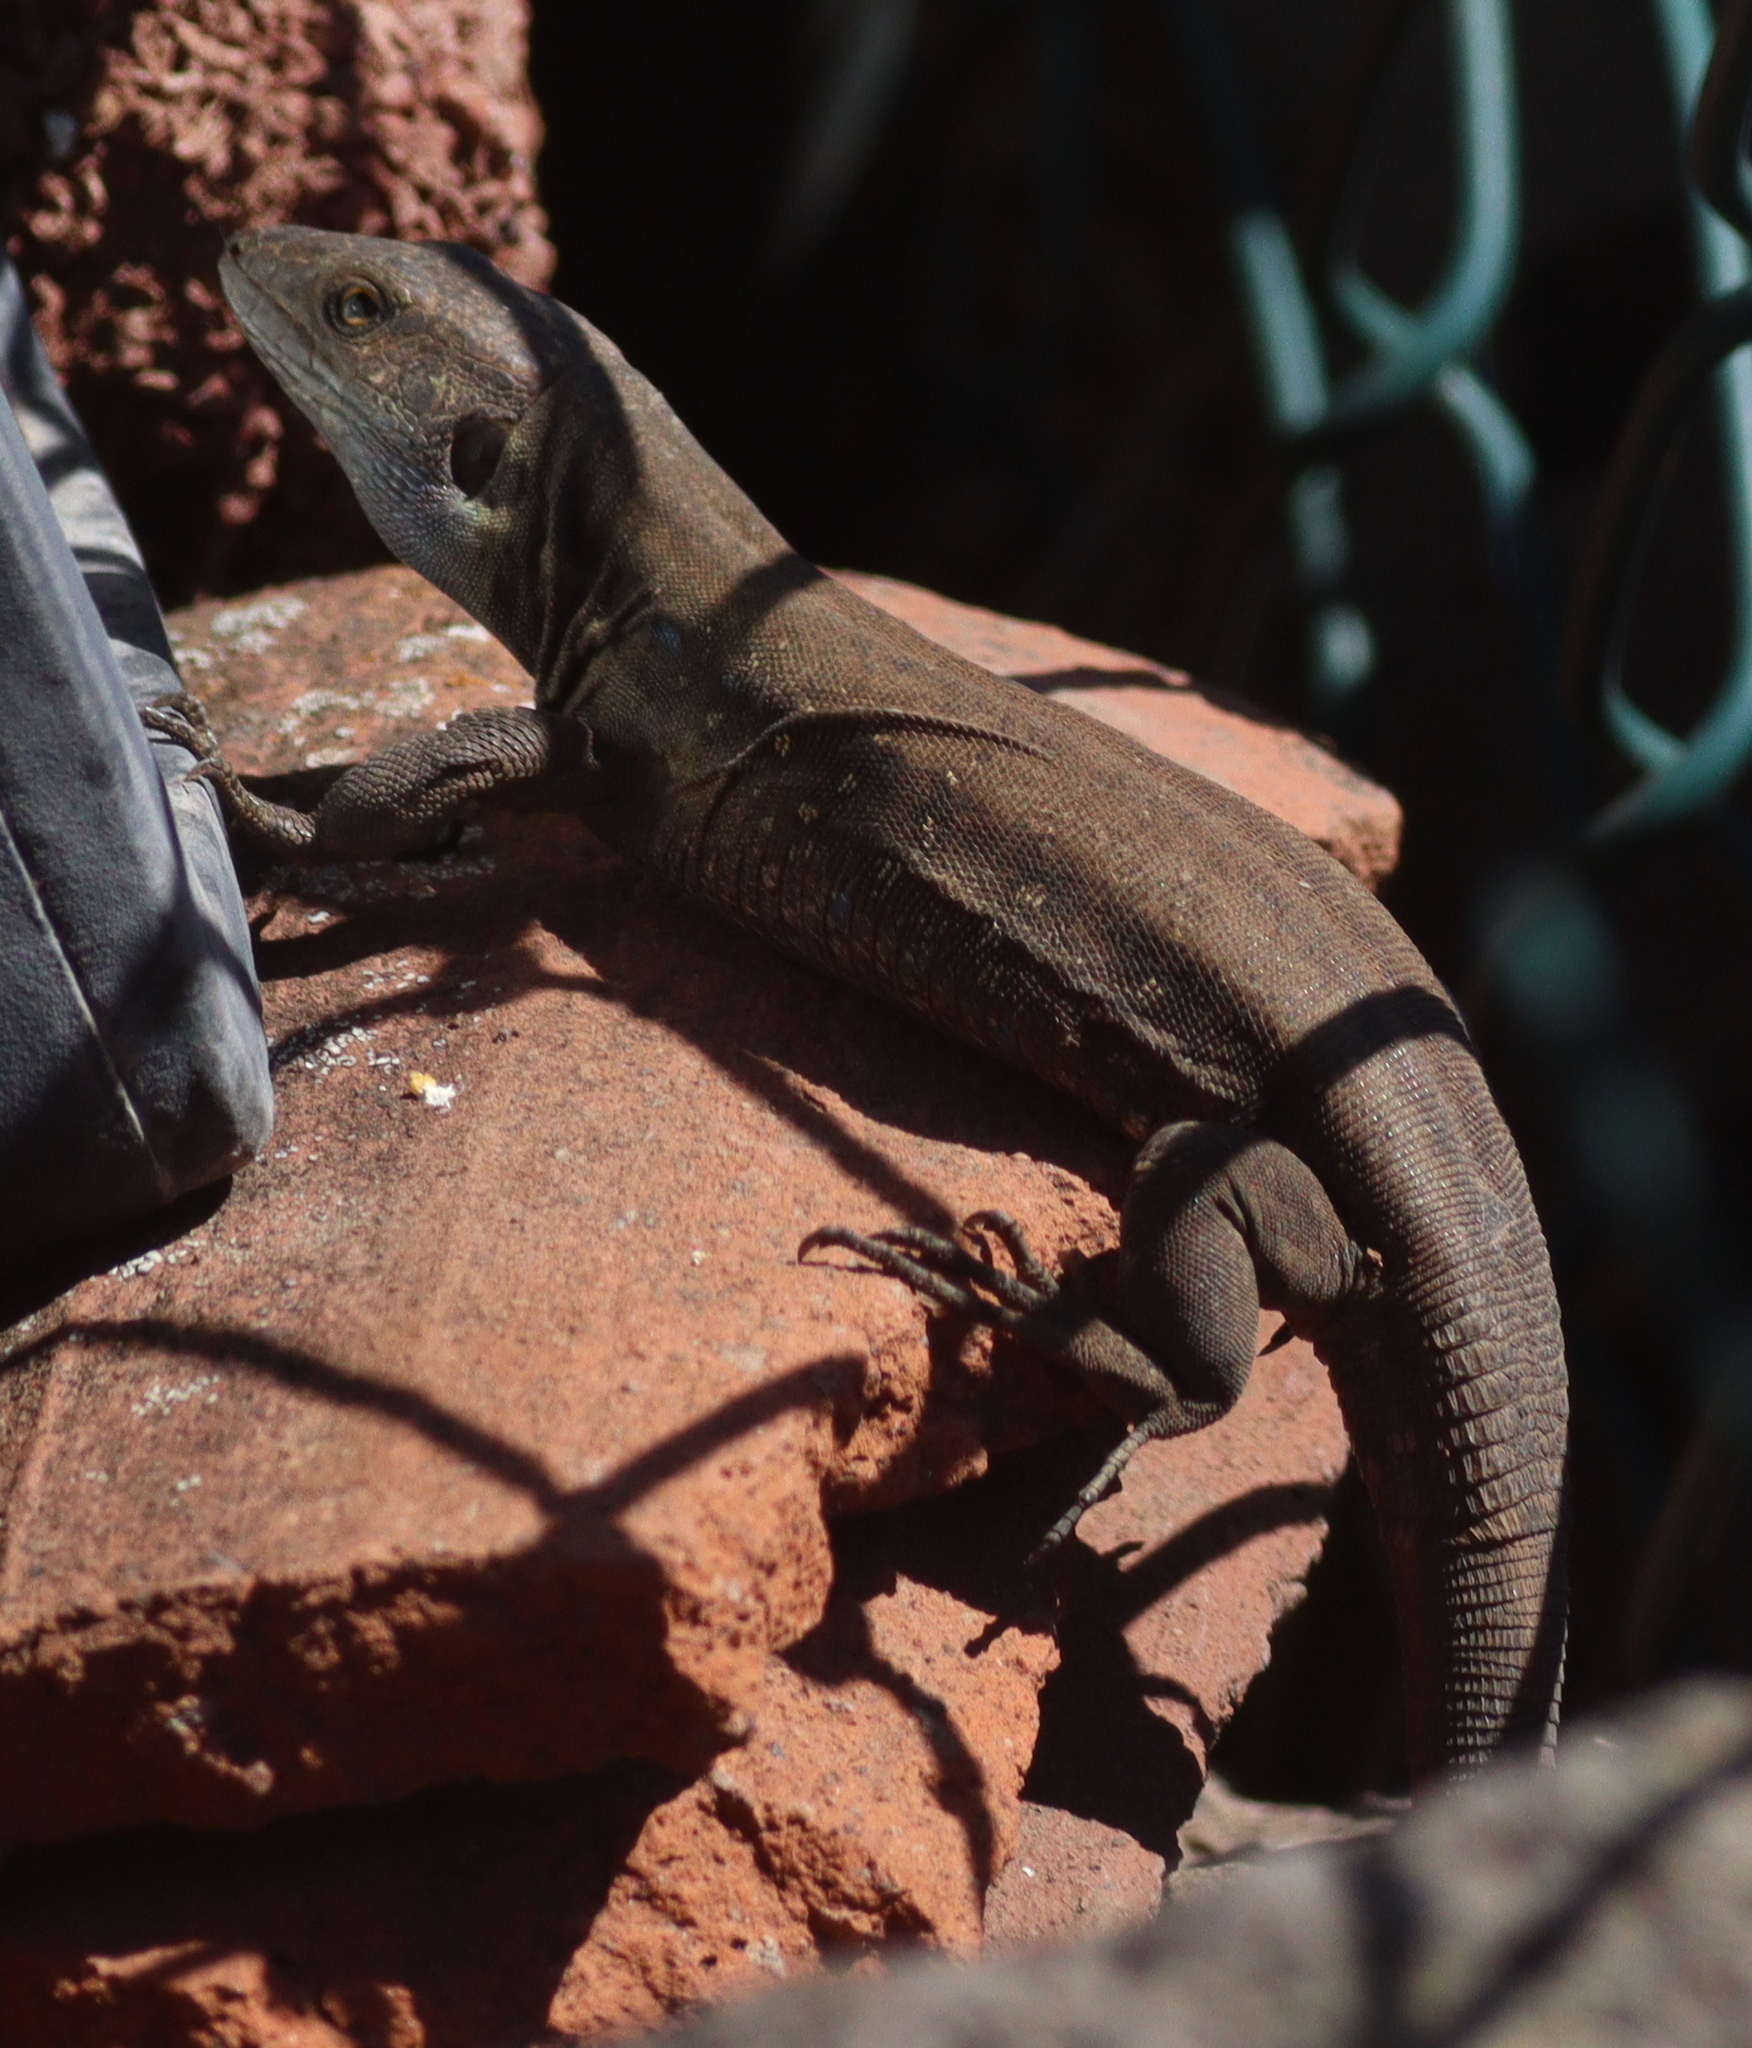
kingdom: Animalia
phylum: Chordata
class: Squamata
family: Lacertidae
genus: Gallotia
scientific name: Gallotia galloti
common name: Gallot's lizard
